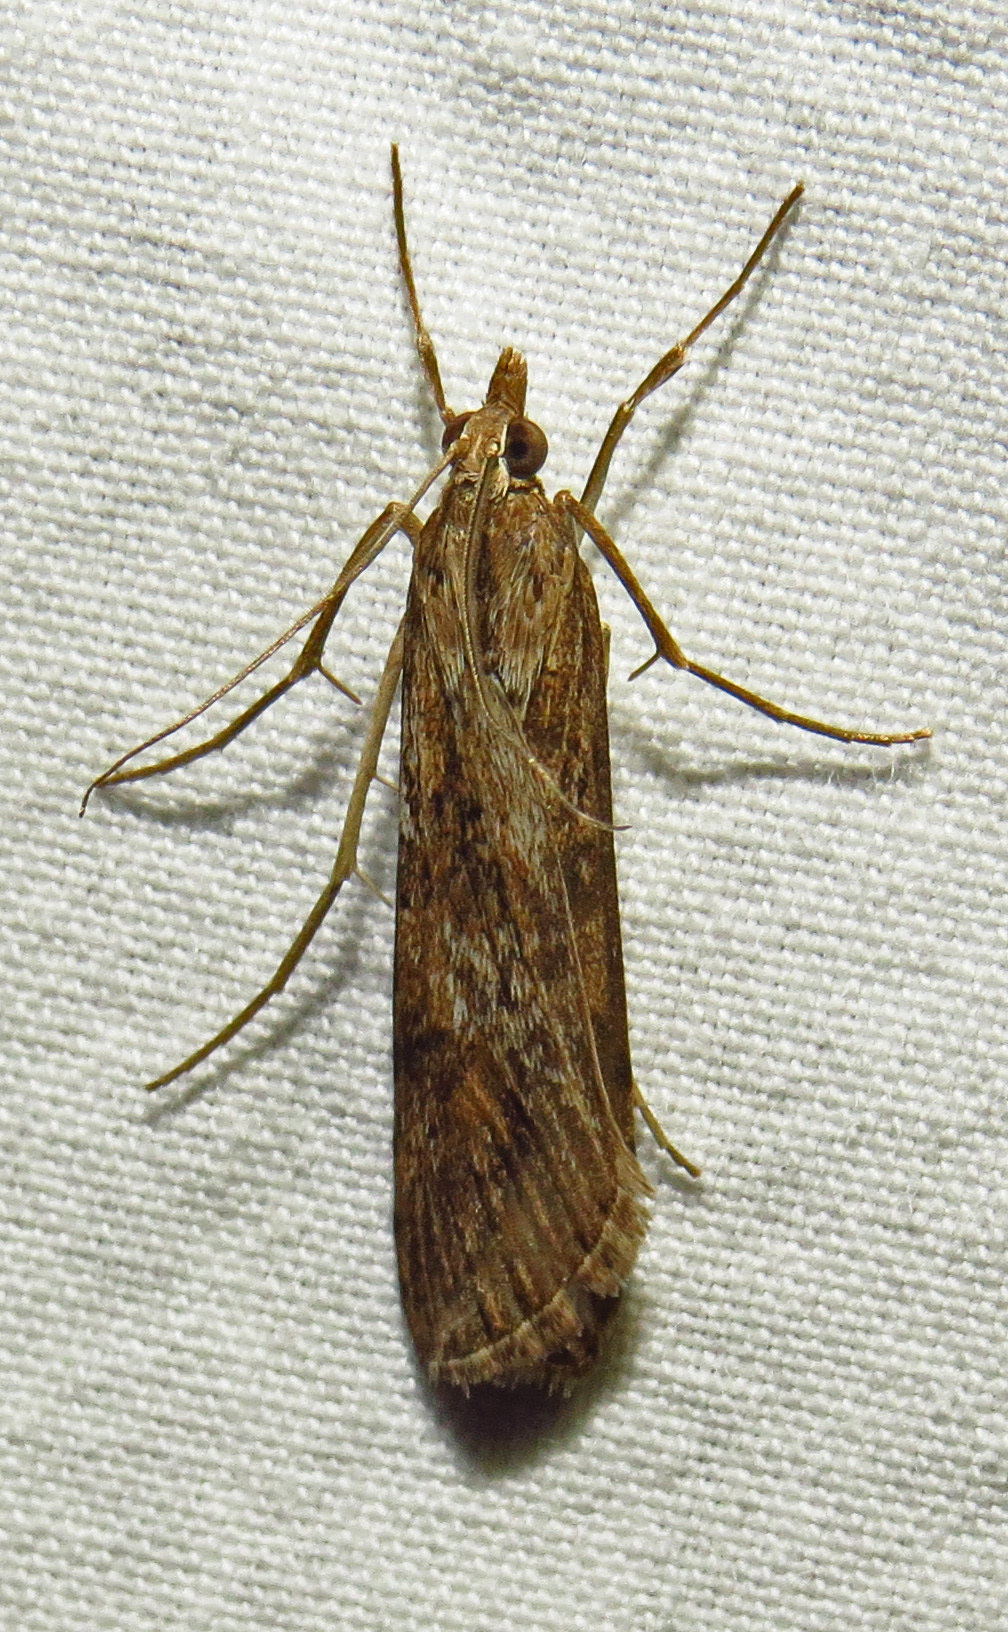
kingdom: Animalia
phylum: Arthropoda
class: Insecta
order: Lepidoptera
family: Crambidae
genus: Nomophila
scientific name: Nomophila nearctica
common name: American rush veneer
